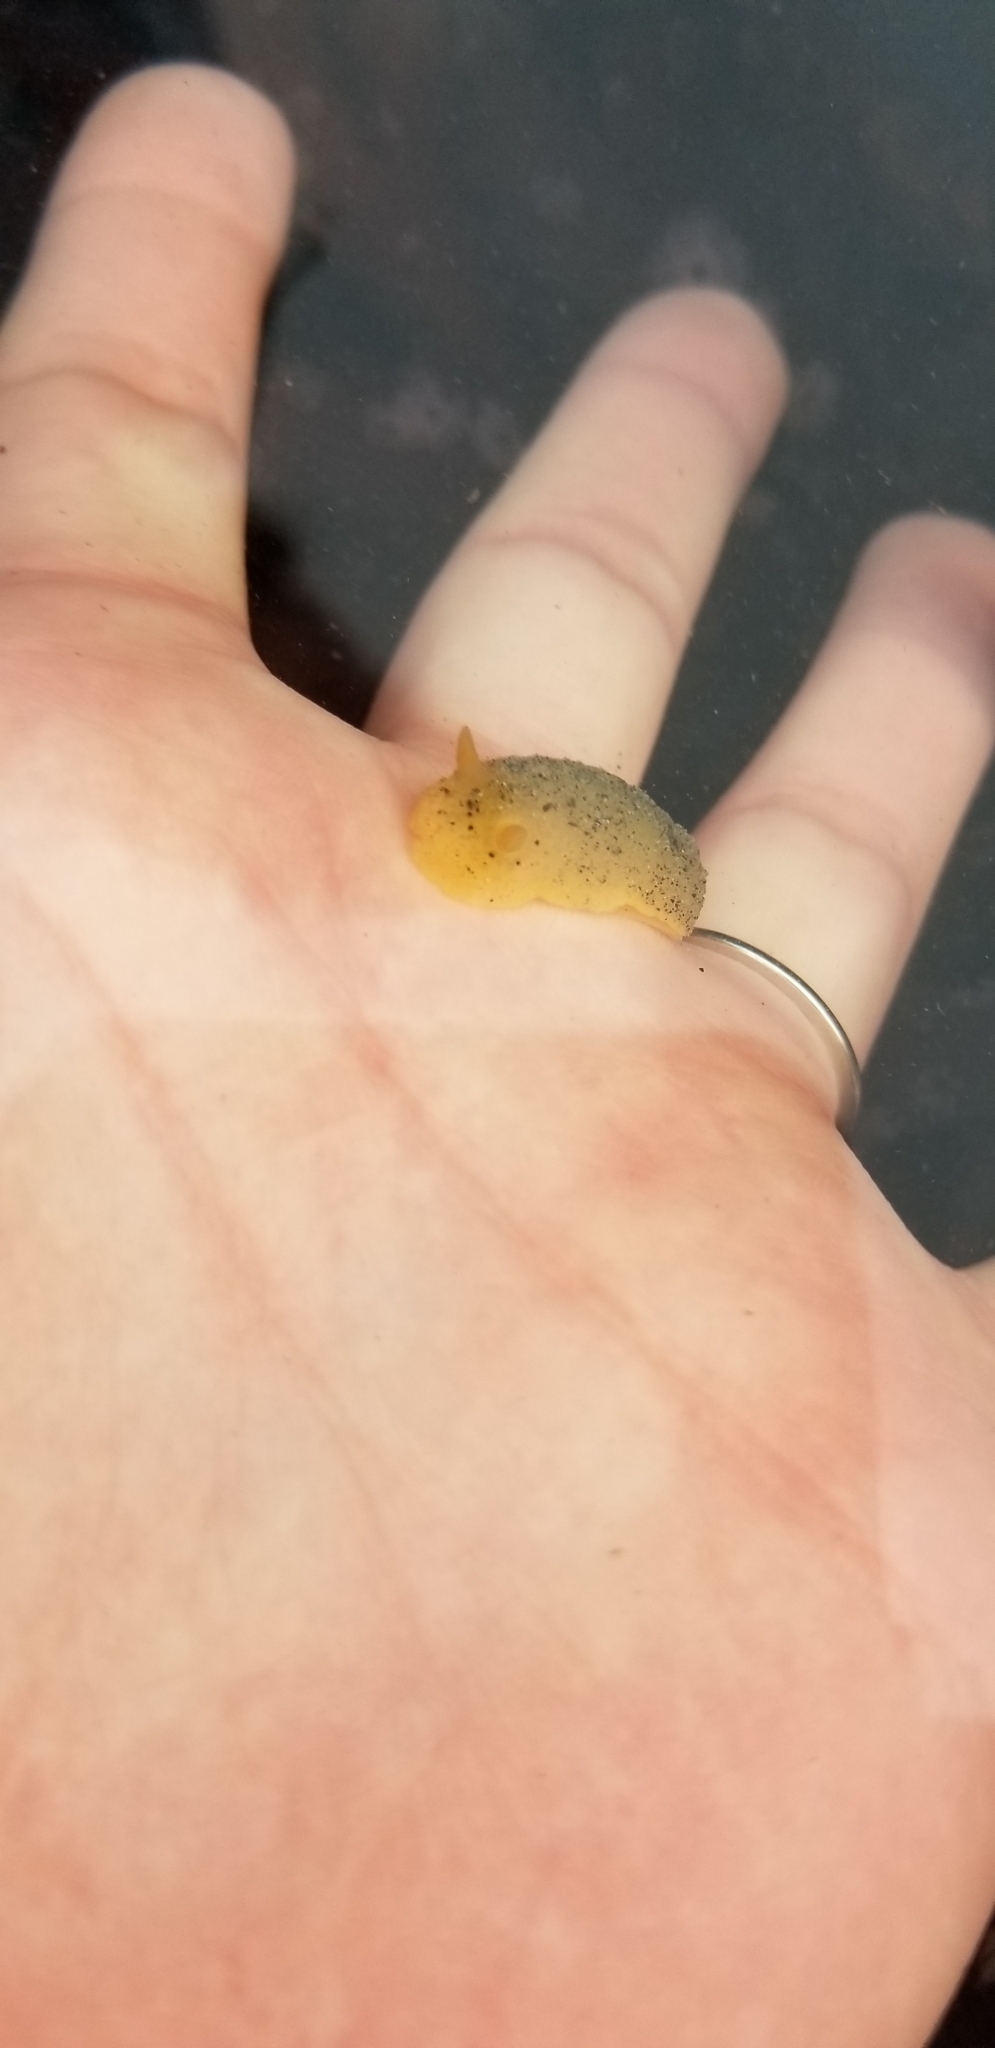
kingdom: Animalia
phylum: Mollusca
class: Gastropoda
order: Nudibranchia
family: Dorididae
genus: Doris
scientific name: Doris montereyensis
